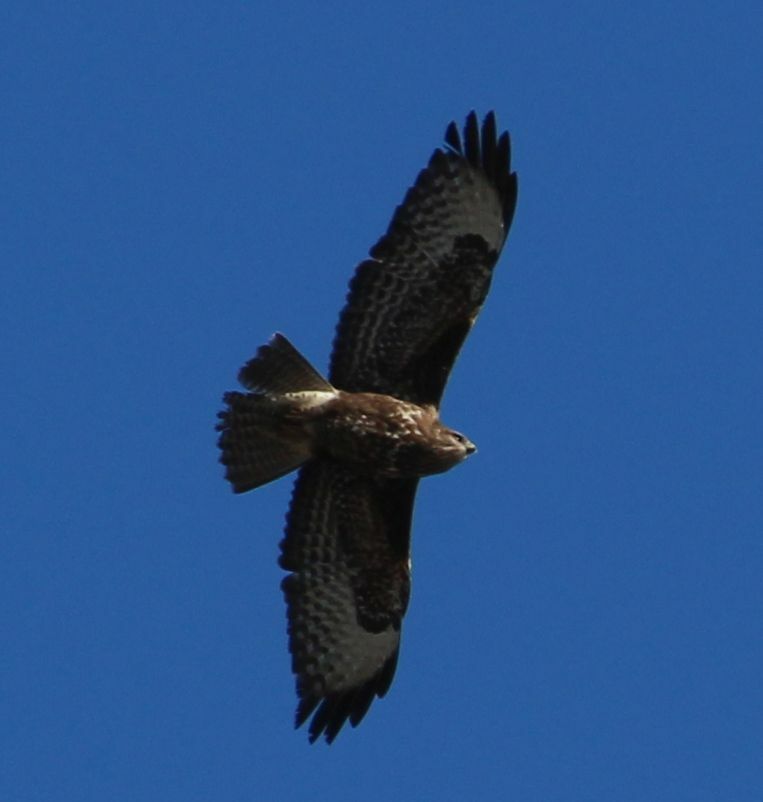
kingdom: Animalia
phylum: Chordata
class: Aves
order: Accipitriformes
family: Accipitridae
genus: Buteo
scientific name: Buteo buteo
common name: Common buzzard
